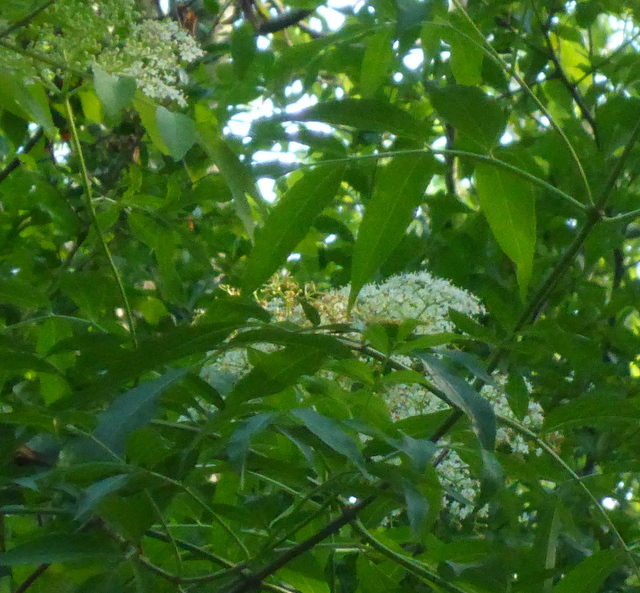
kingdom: Plantae
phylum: Tracheophyta
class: Magnoliopsida
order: Dipsacales
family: Viburnaceae
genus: Sambucus
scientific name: Sambucus canadensis
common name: American elder
